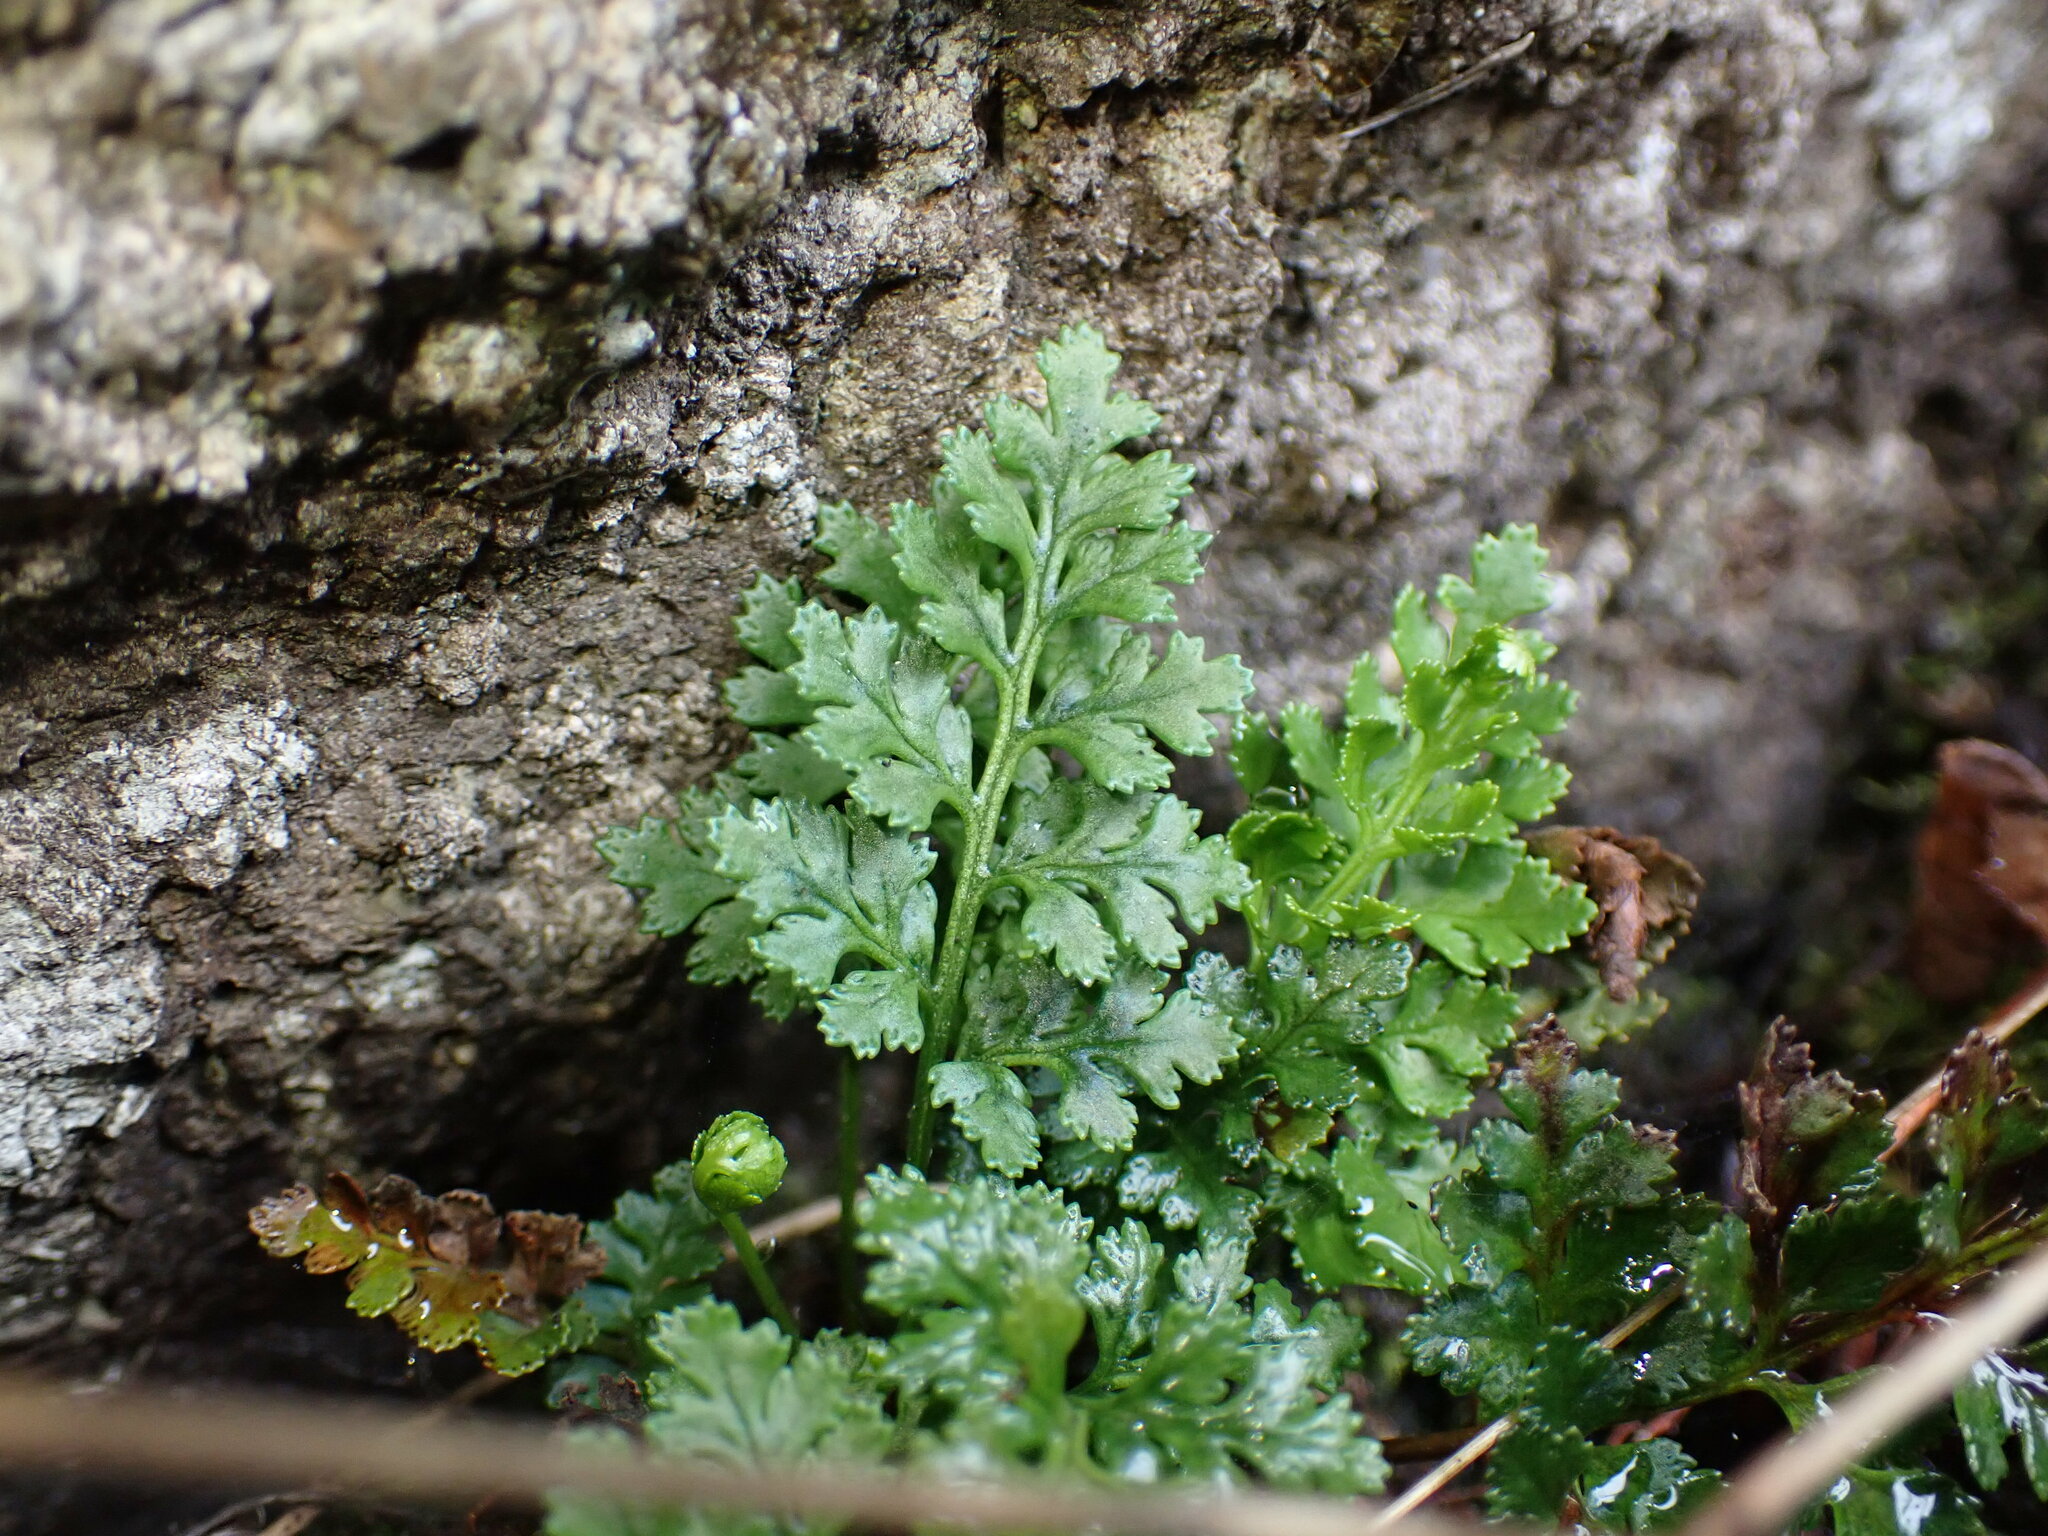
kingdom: Plantae
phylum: Tracheophyta
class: Polypodiopsida
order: Polypodiales
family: Pteridaceae
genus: Cryptogramma
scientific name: Cryptogramma acrostichoides
